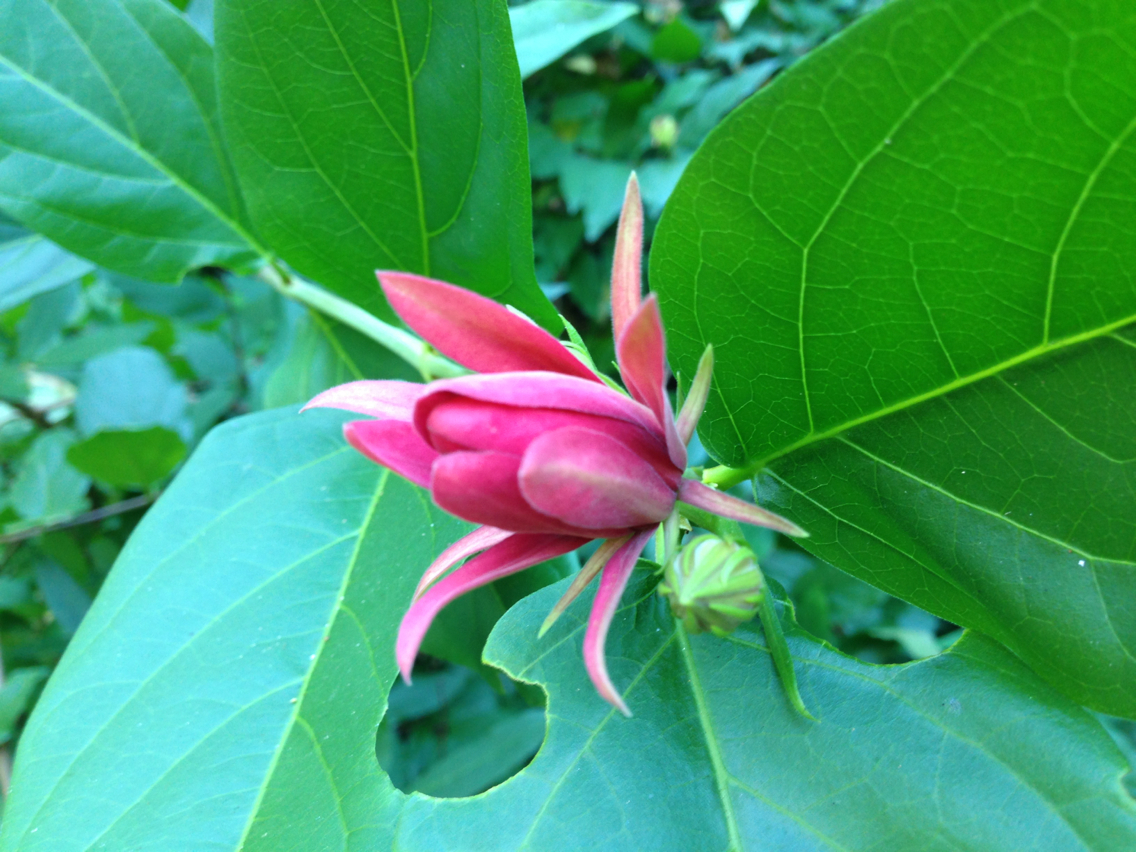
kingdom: Plantae
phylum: Tracheophyta
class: Magnoliopsida
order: Laurales
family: Calycanthaceae
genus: Calycanthus
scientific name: Calycanthus occidentalis
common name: California spicebush
